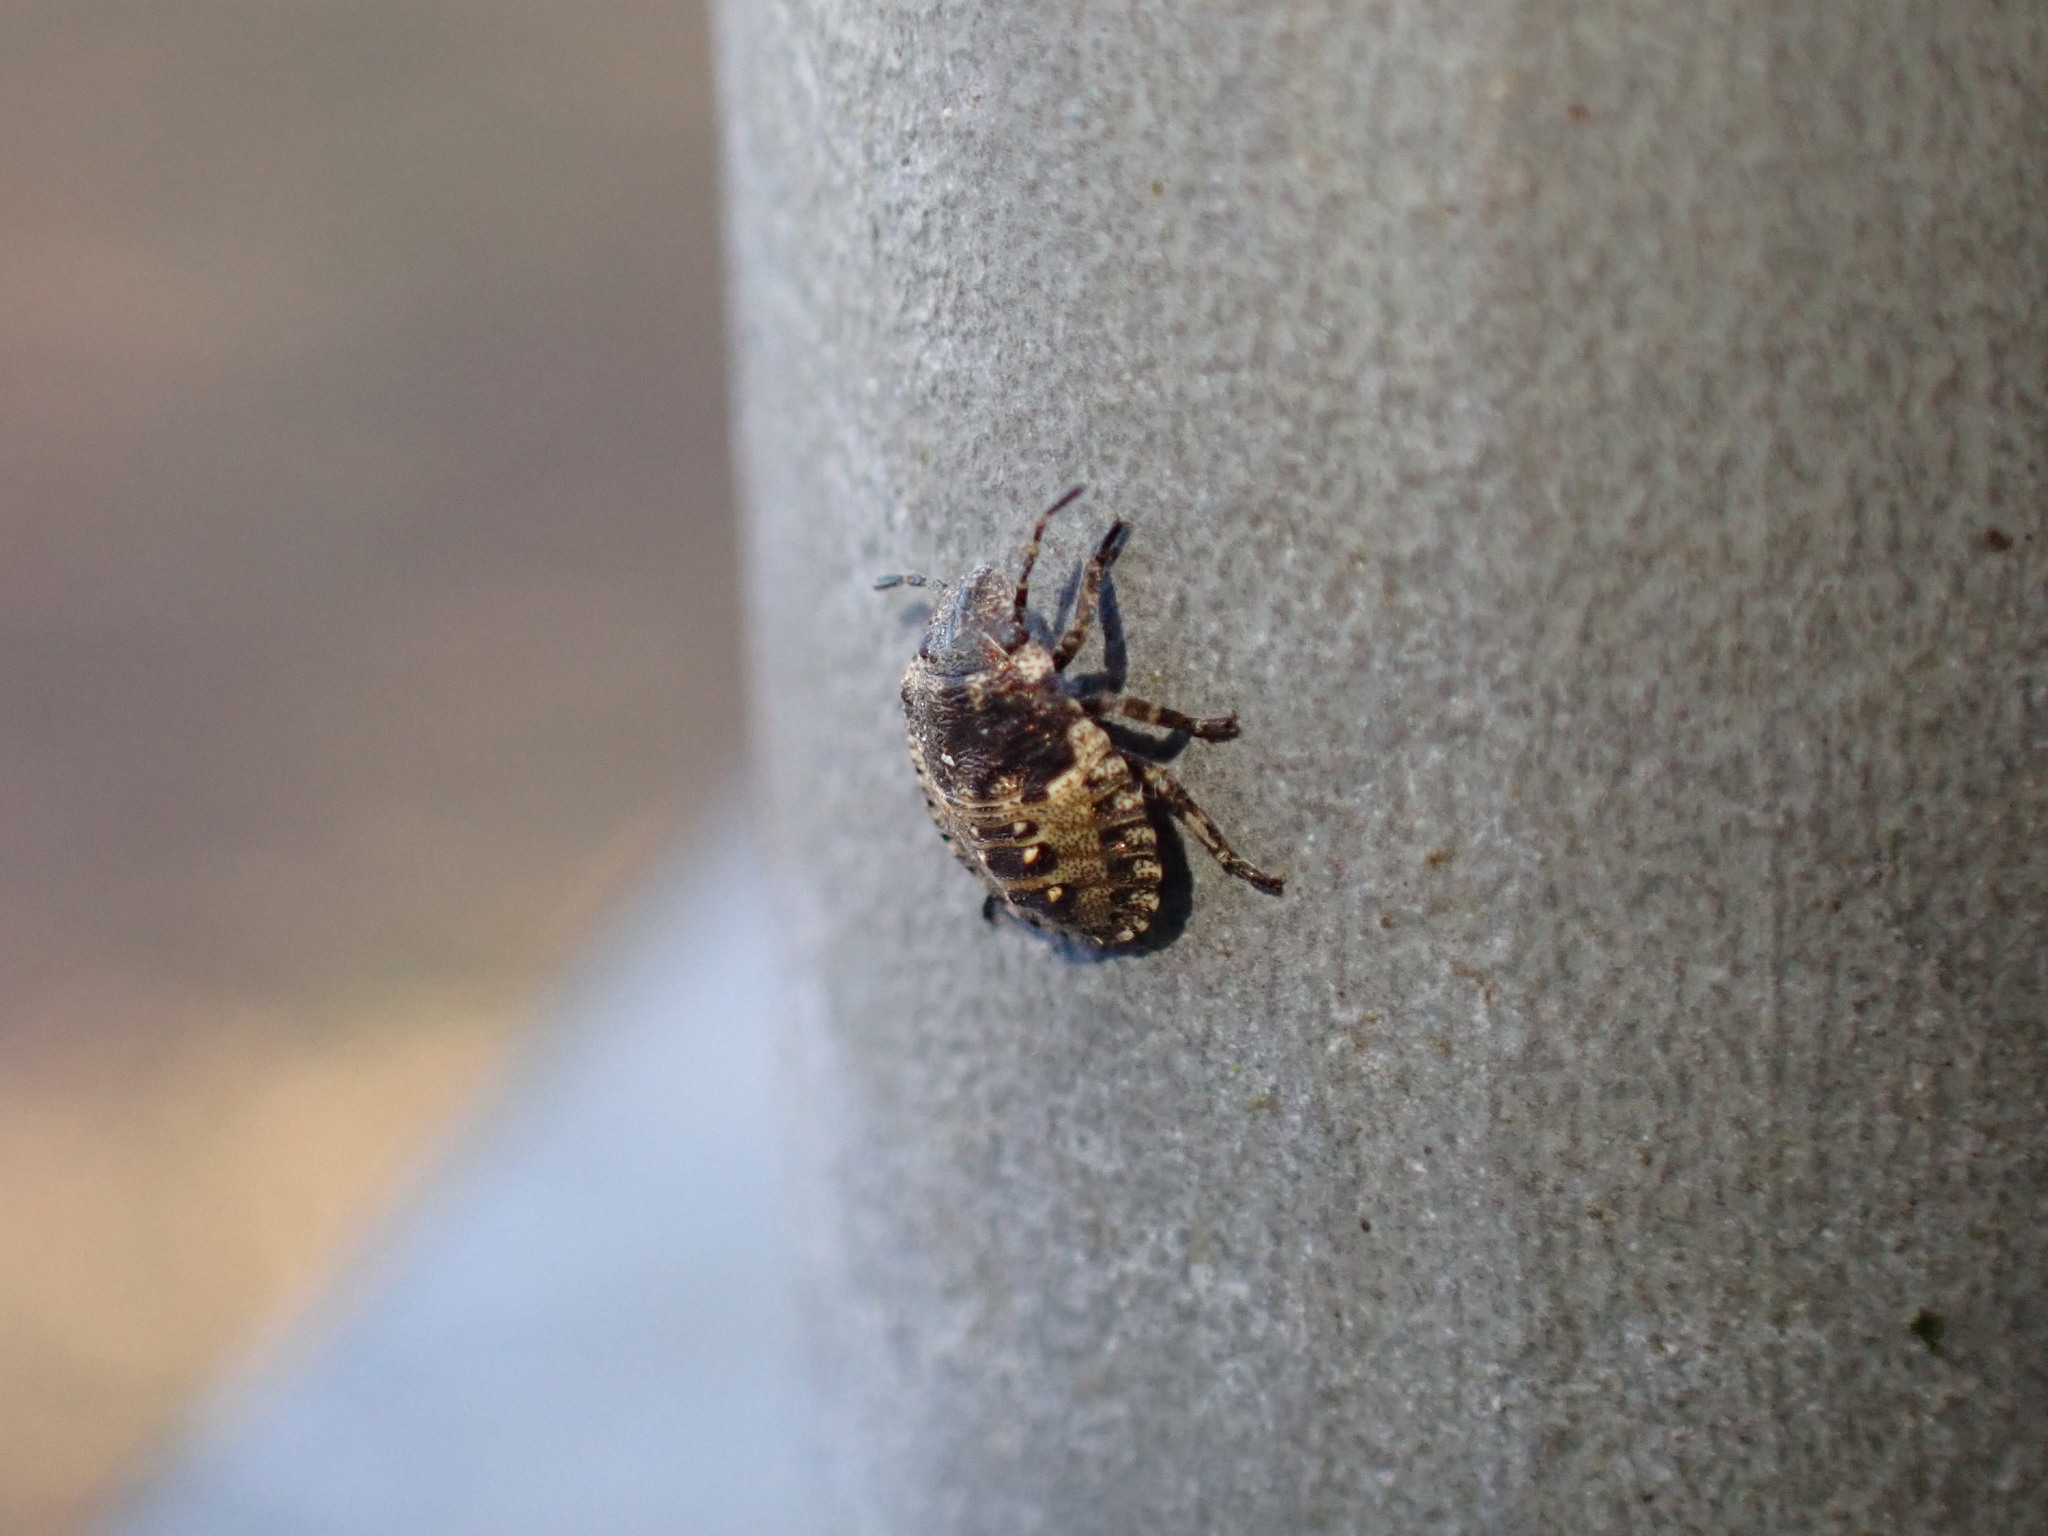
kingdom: Animalia
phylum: Arthropoda
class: Insecta
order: Hemiptera
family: Pentatomidae
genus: Pentatoma
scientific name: Pentatoma rufipes
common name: Forest bug
